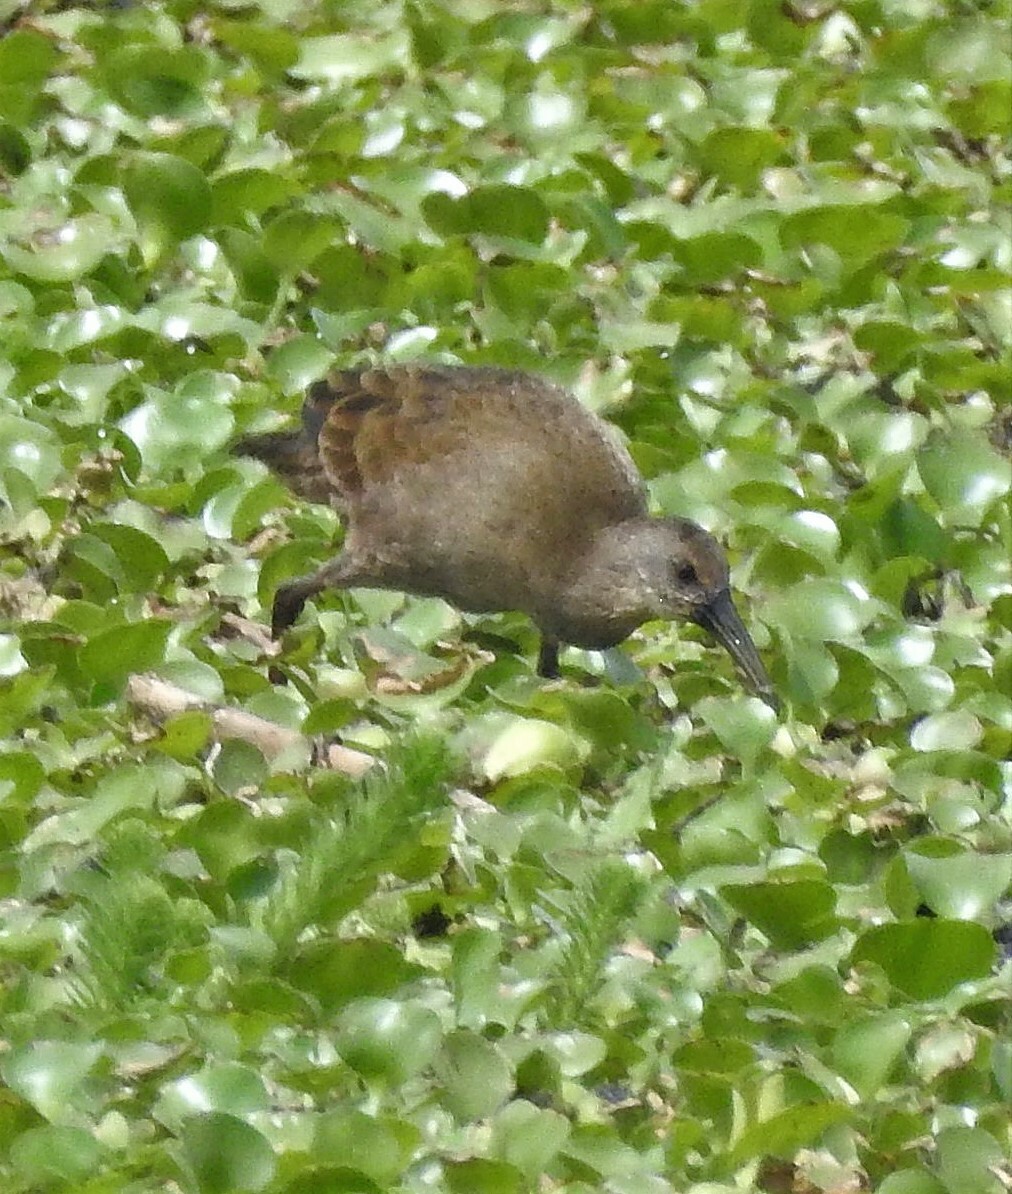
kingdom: Animalia
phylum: Chordata
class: Aves
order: Gruiformes
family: Rallidae
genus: Pardirallus
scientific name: Pardirallus sanguinolentus
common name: Plumbeous rail
